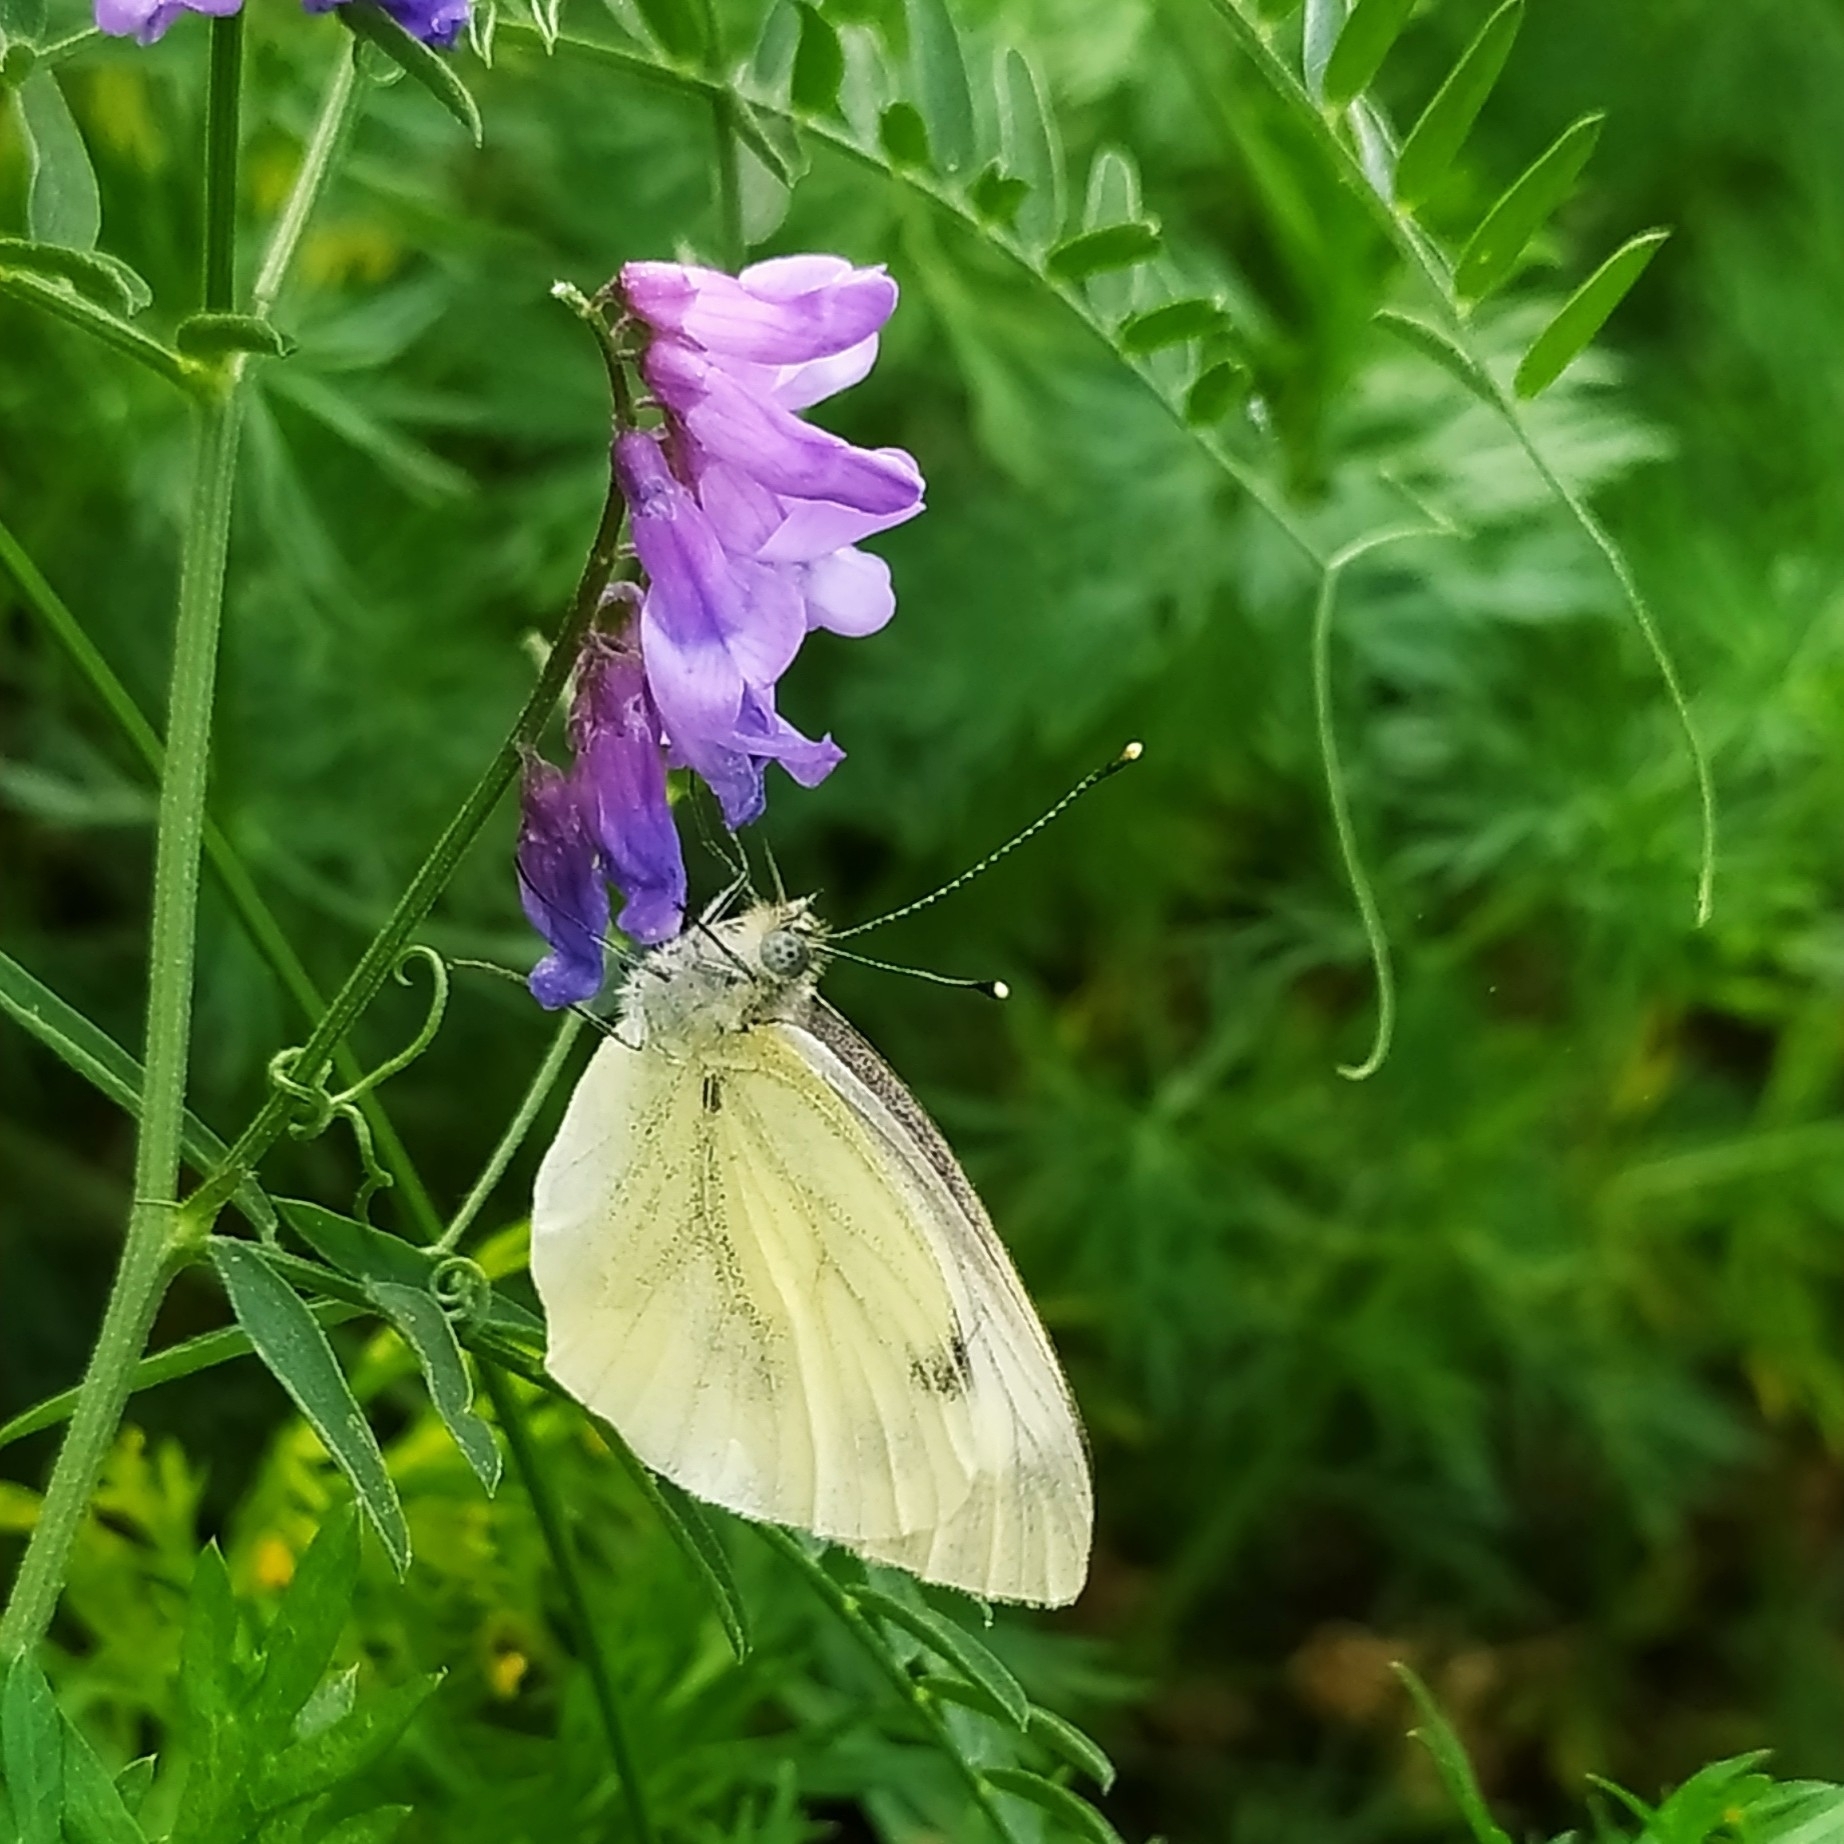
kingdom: Animalia
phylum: Arthropoda
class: Insecta
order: Lepidoptera
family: Pieridae
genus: Pieris
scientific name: Pieris napi
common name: Green-veined white
